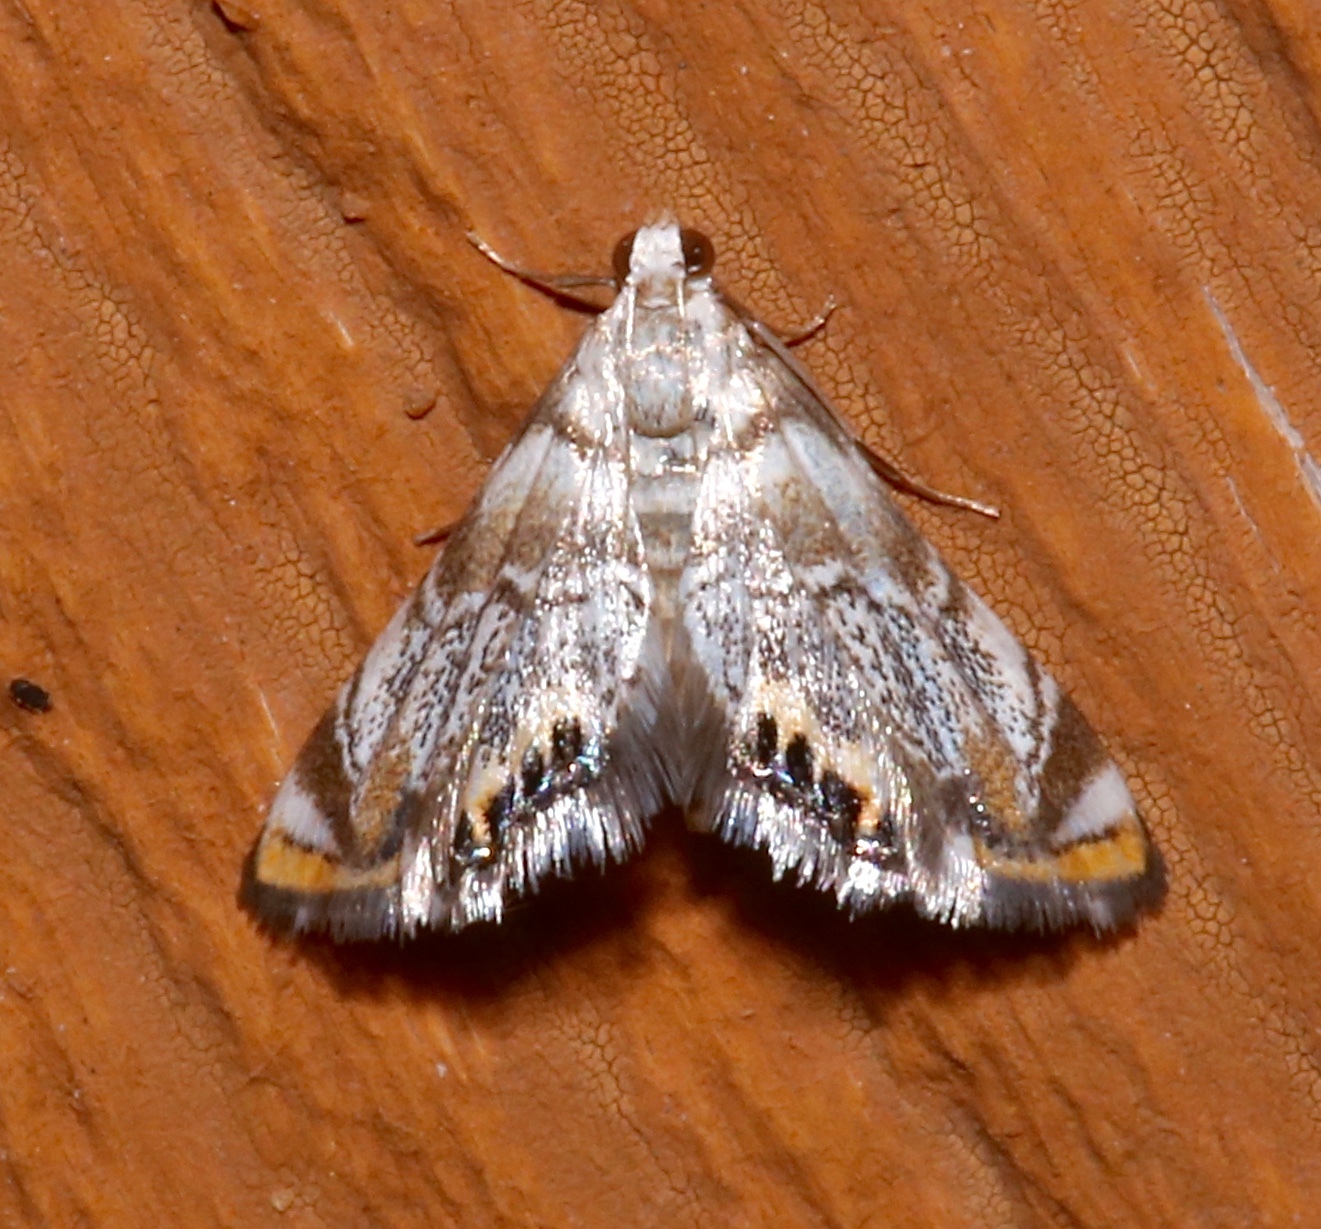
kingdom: Animalia
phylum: Arthropoda
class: Insecta
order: Lepidoptera
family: Crambidae
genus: Eoparargyractis
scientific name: Eoparargyractis irroratalis
